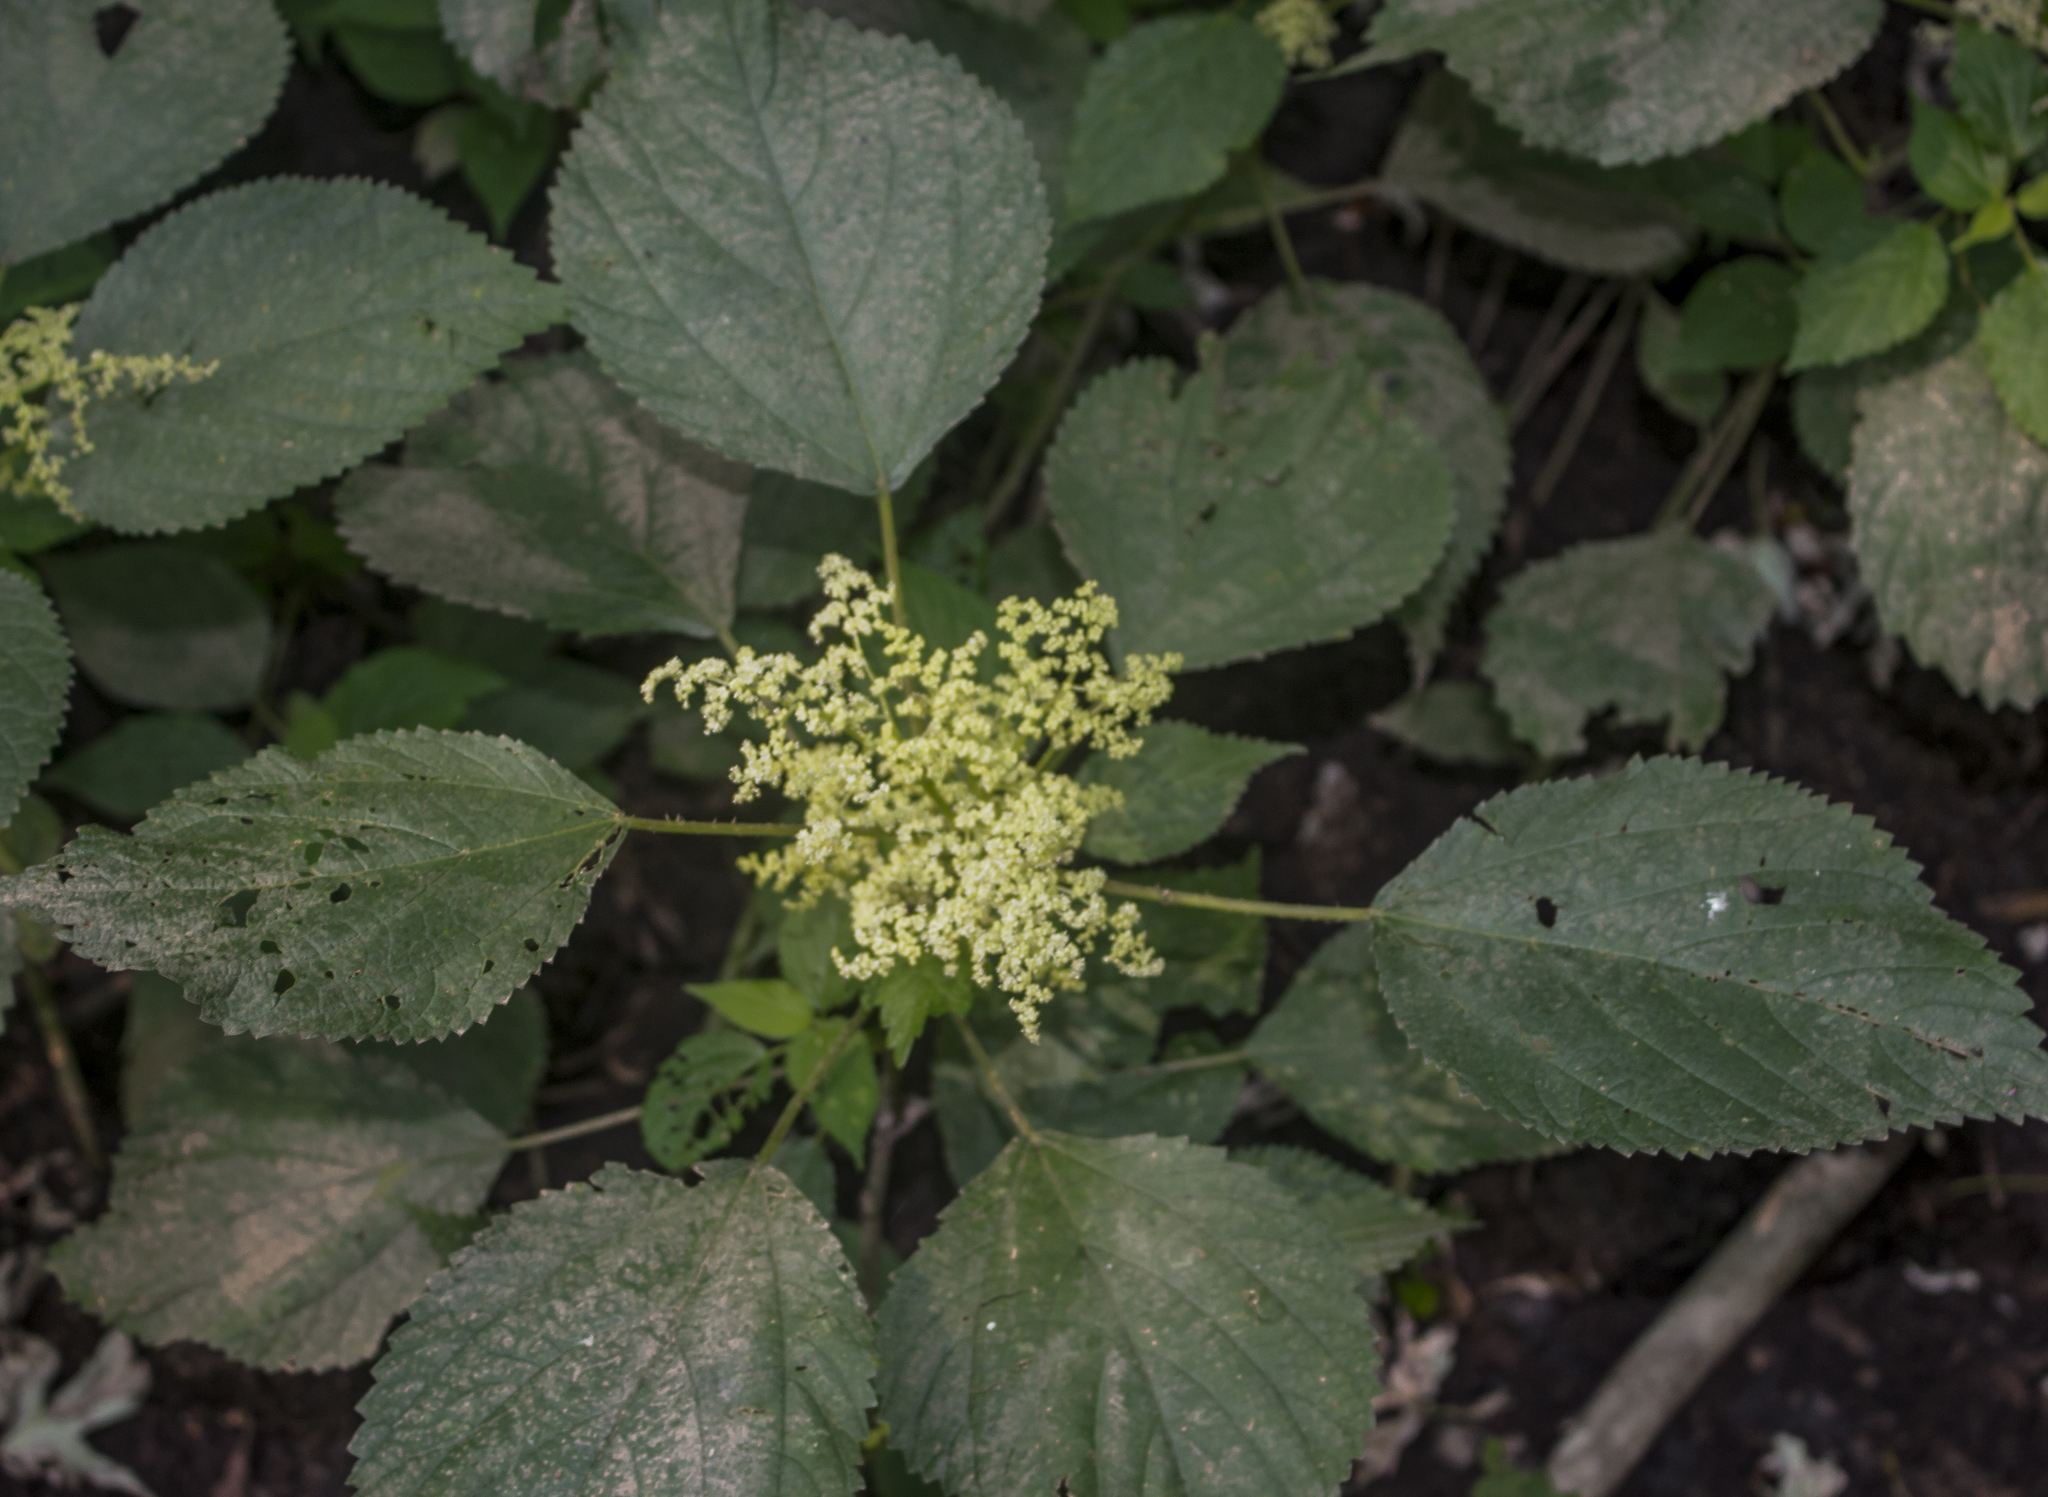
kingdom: Plantae
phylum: Tracheophyta
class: Magnoliopsida
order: Rosales
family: Urticaceae
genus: Laportea
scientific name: Laportea canadensis
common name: Canada nettle
